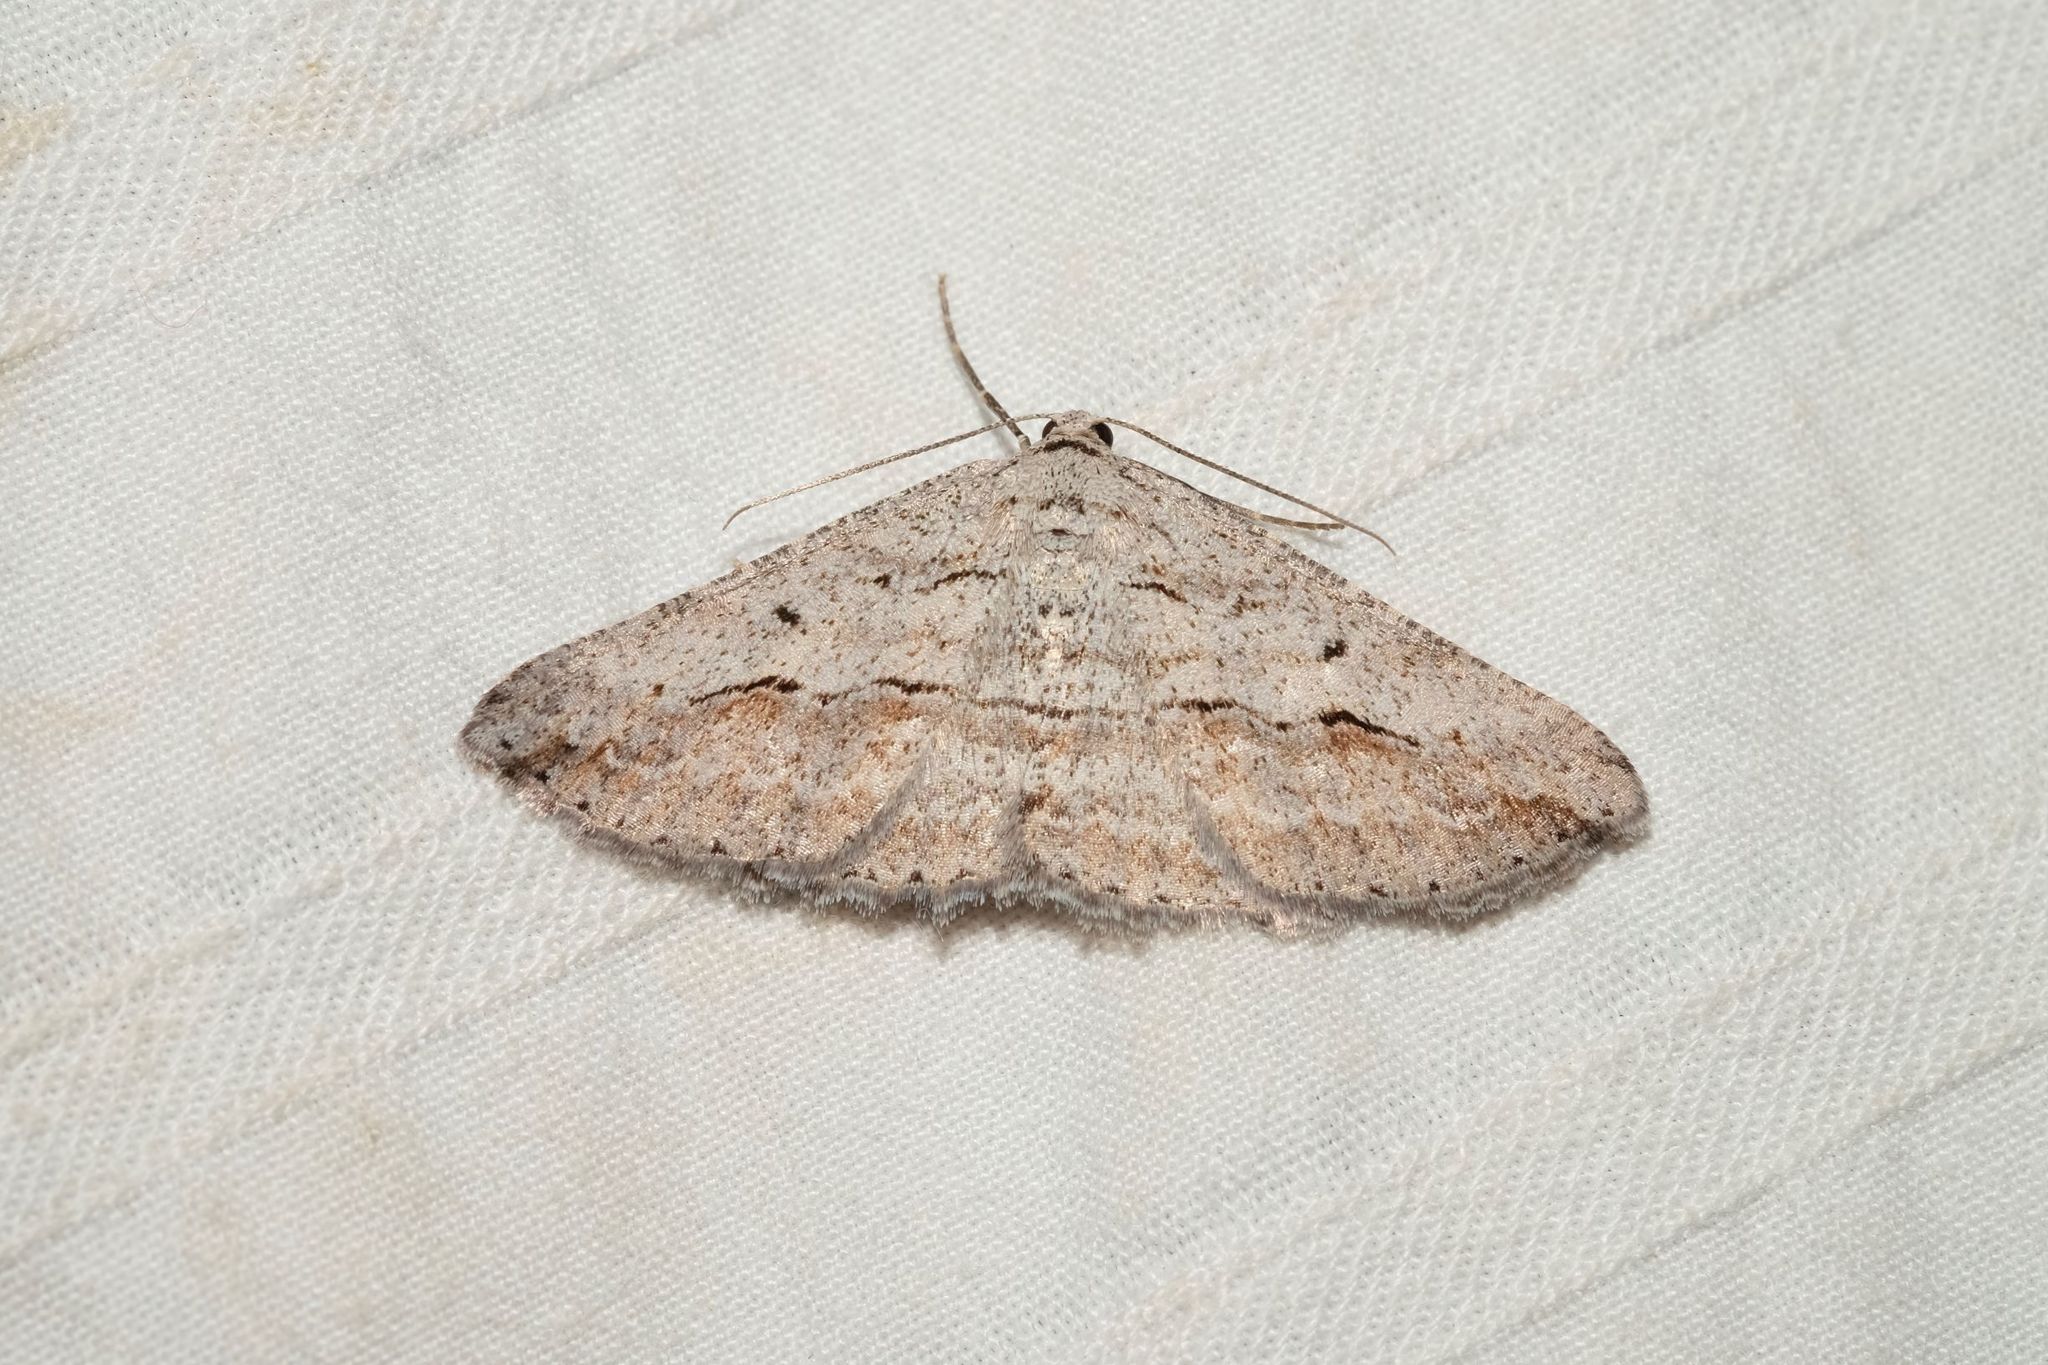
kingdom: Animalia
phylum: Arthropoda
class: Insecta
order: Lepidoptera
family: Geometridae
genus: Syneora
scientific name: Syneora mundifera
